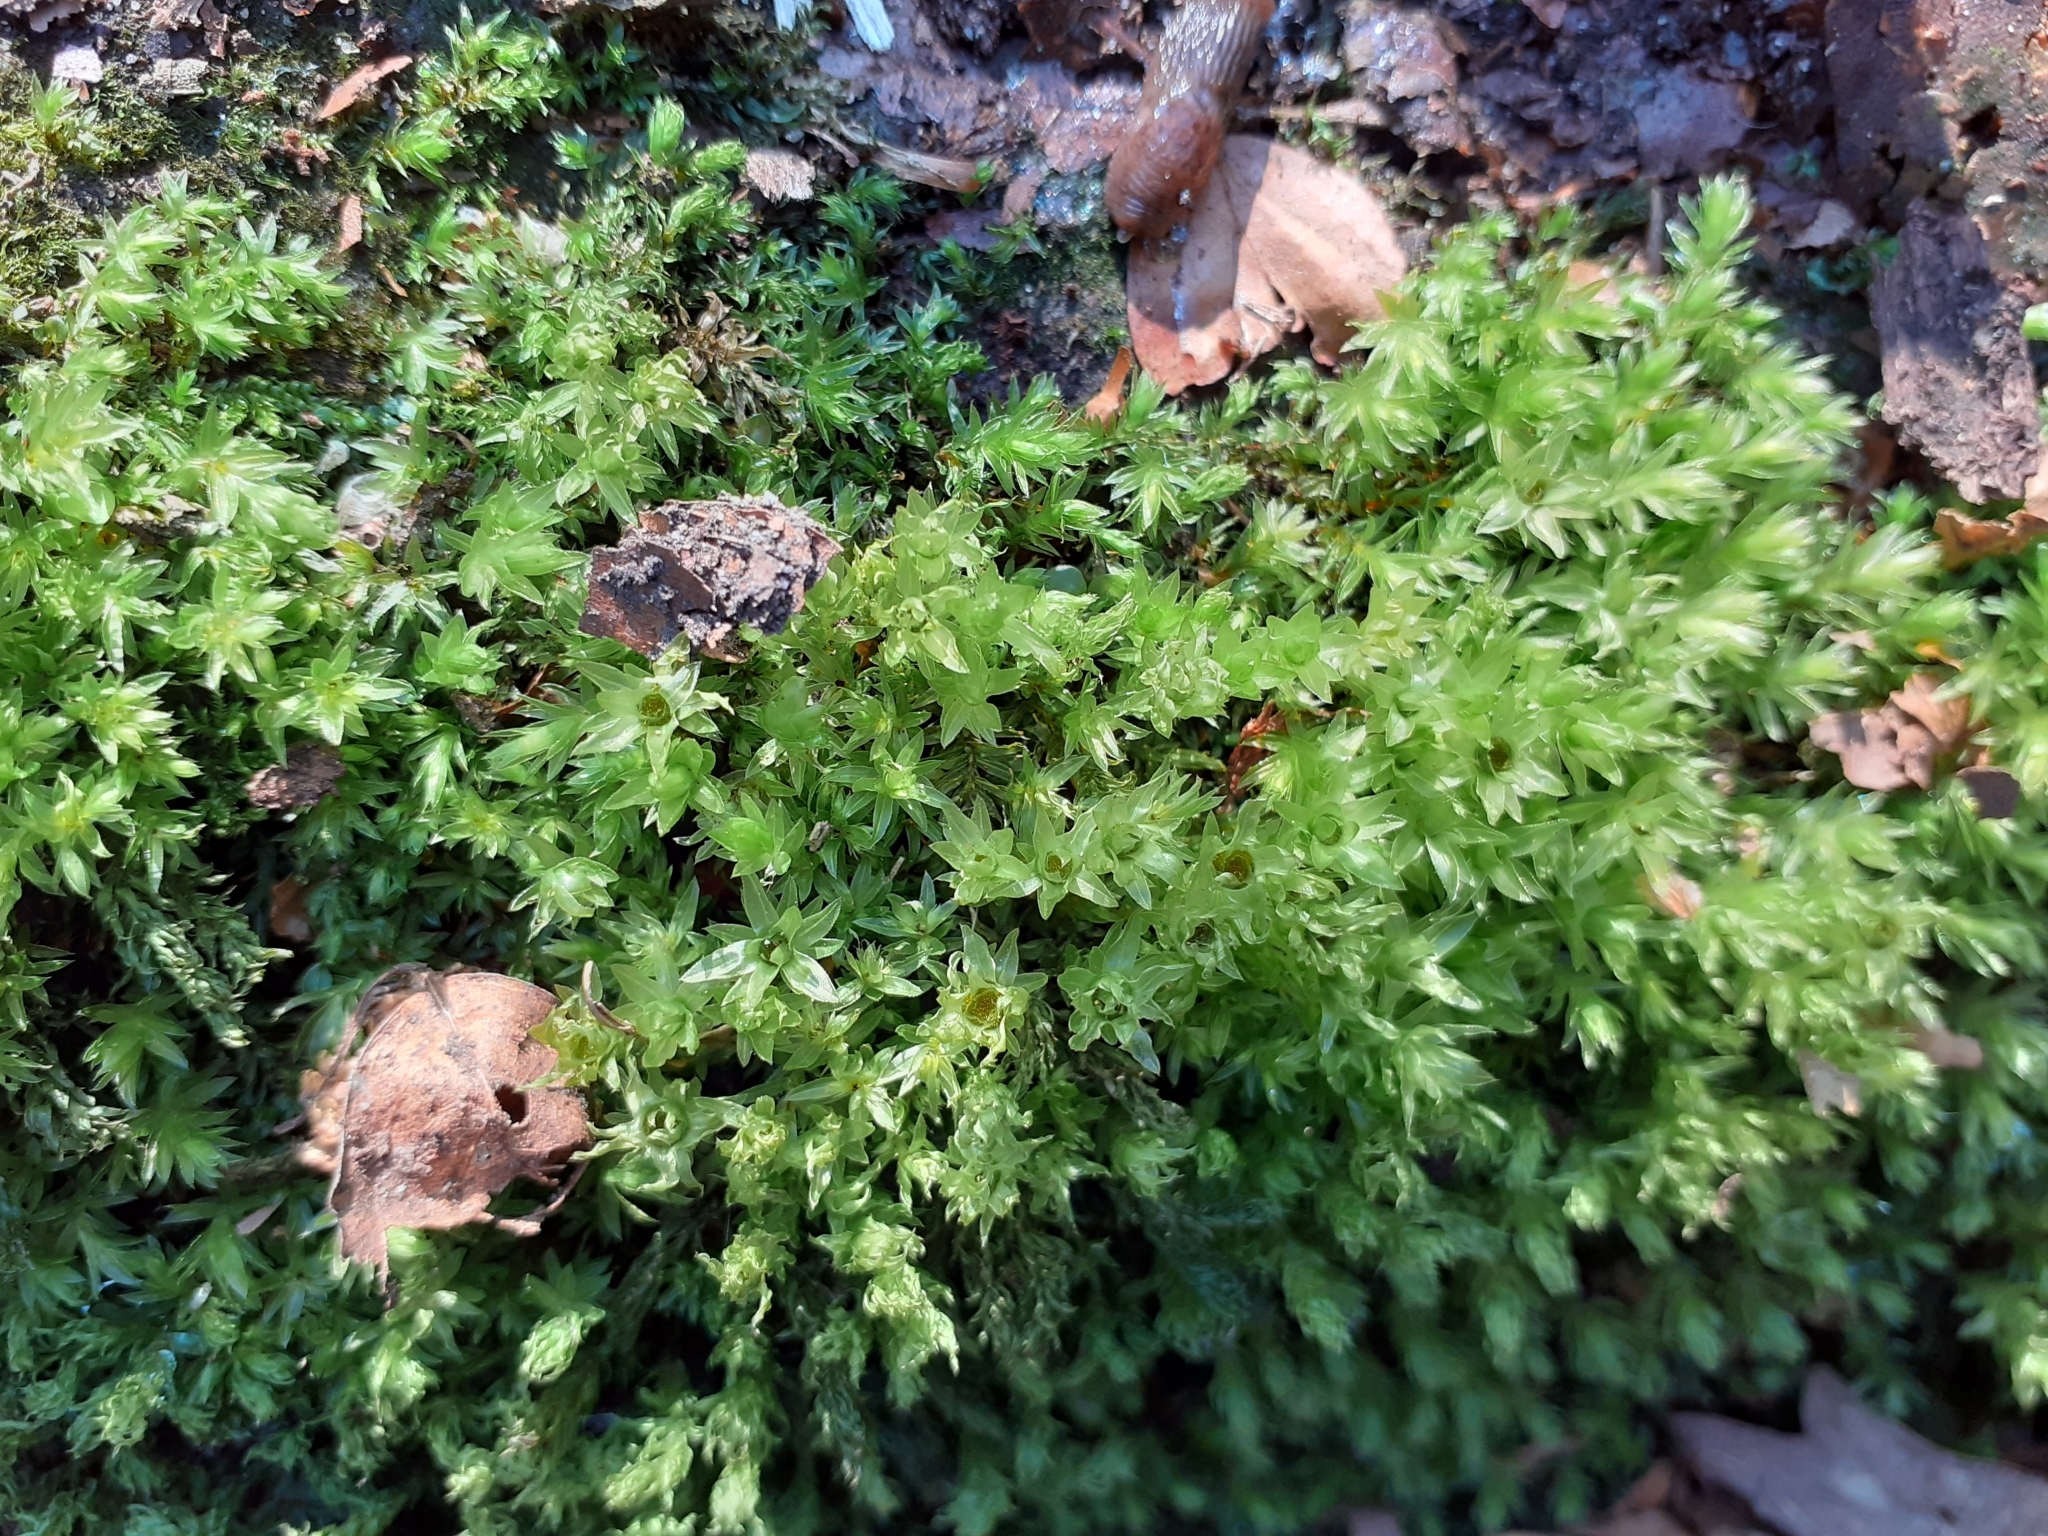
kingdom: Plantae
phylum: Bryophyta
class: Bryopsida
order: Bryales
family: Mniaceae
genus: Mnium
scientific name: Mnium hornum
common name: Swan's-neck leafy moss
